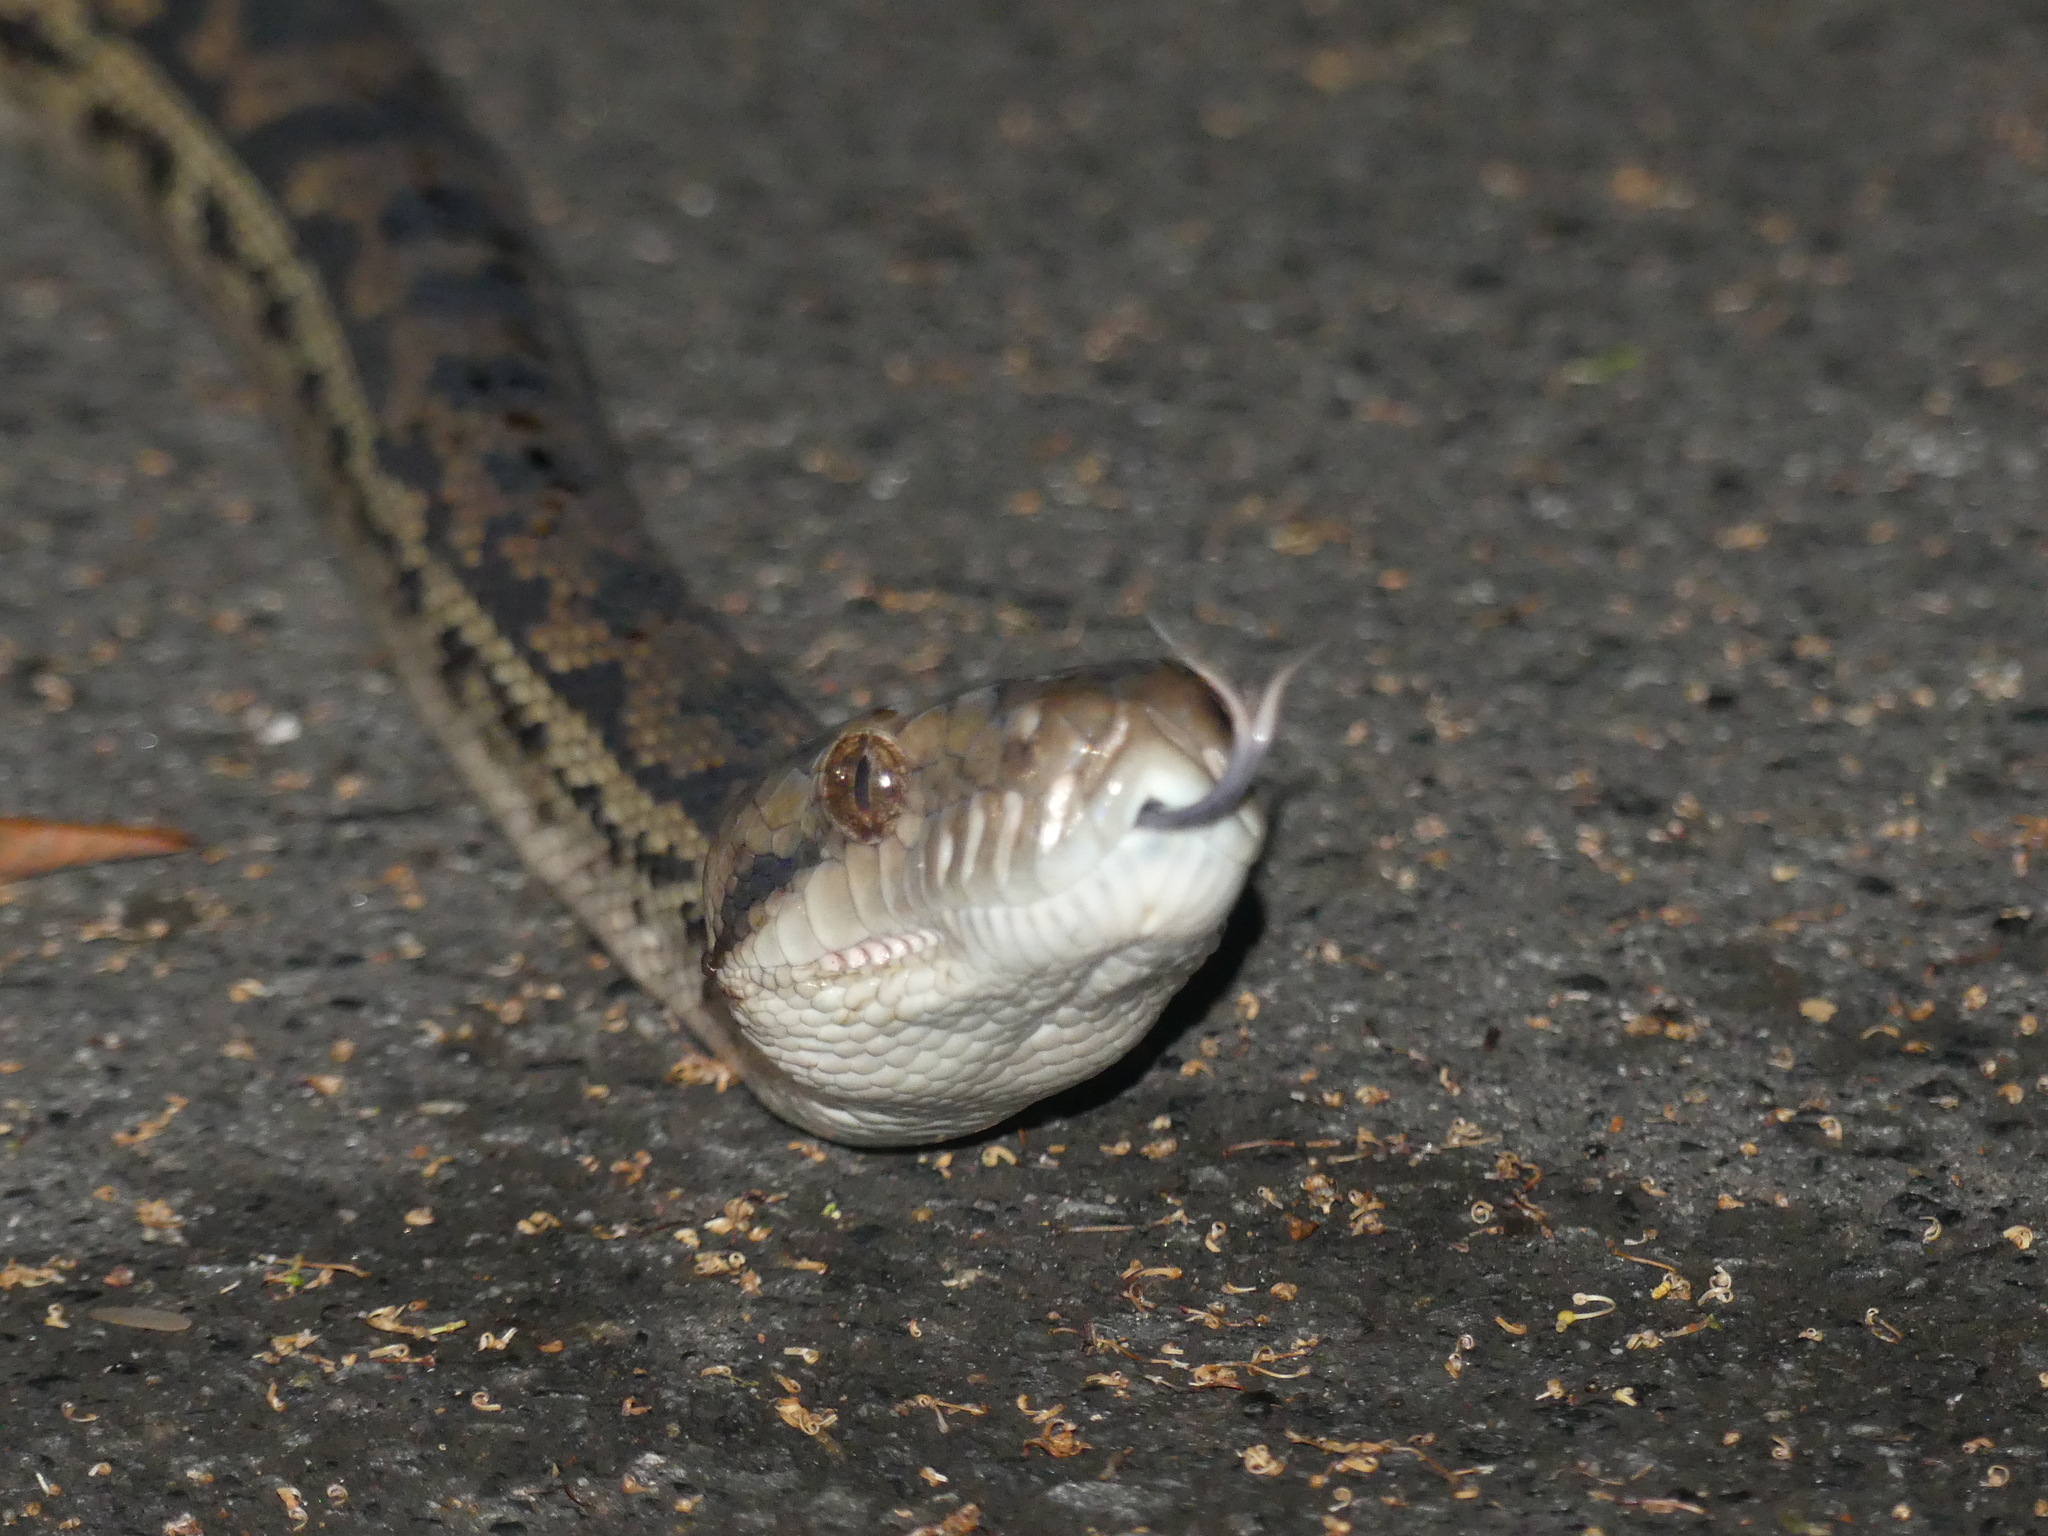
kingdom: Animalia
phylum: Chordata
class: Squamata
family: Pythonidae
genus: Simalia
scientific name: Simalia kinghorni
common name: Scrub python
